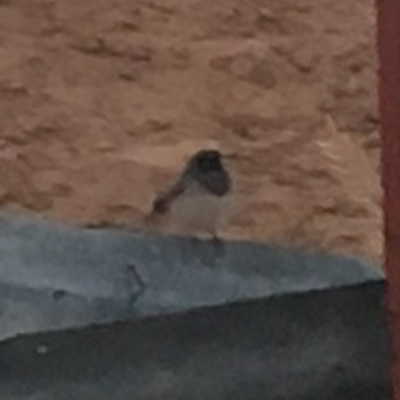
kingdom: Animalia
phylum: Chordata
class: Aves
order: Passeriformes
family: Passerellidae
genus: Junco
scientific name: Junco hyemalis
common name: Dark-eyed junco
